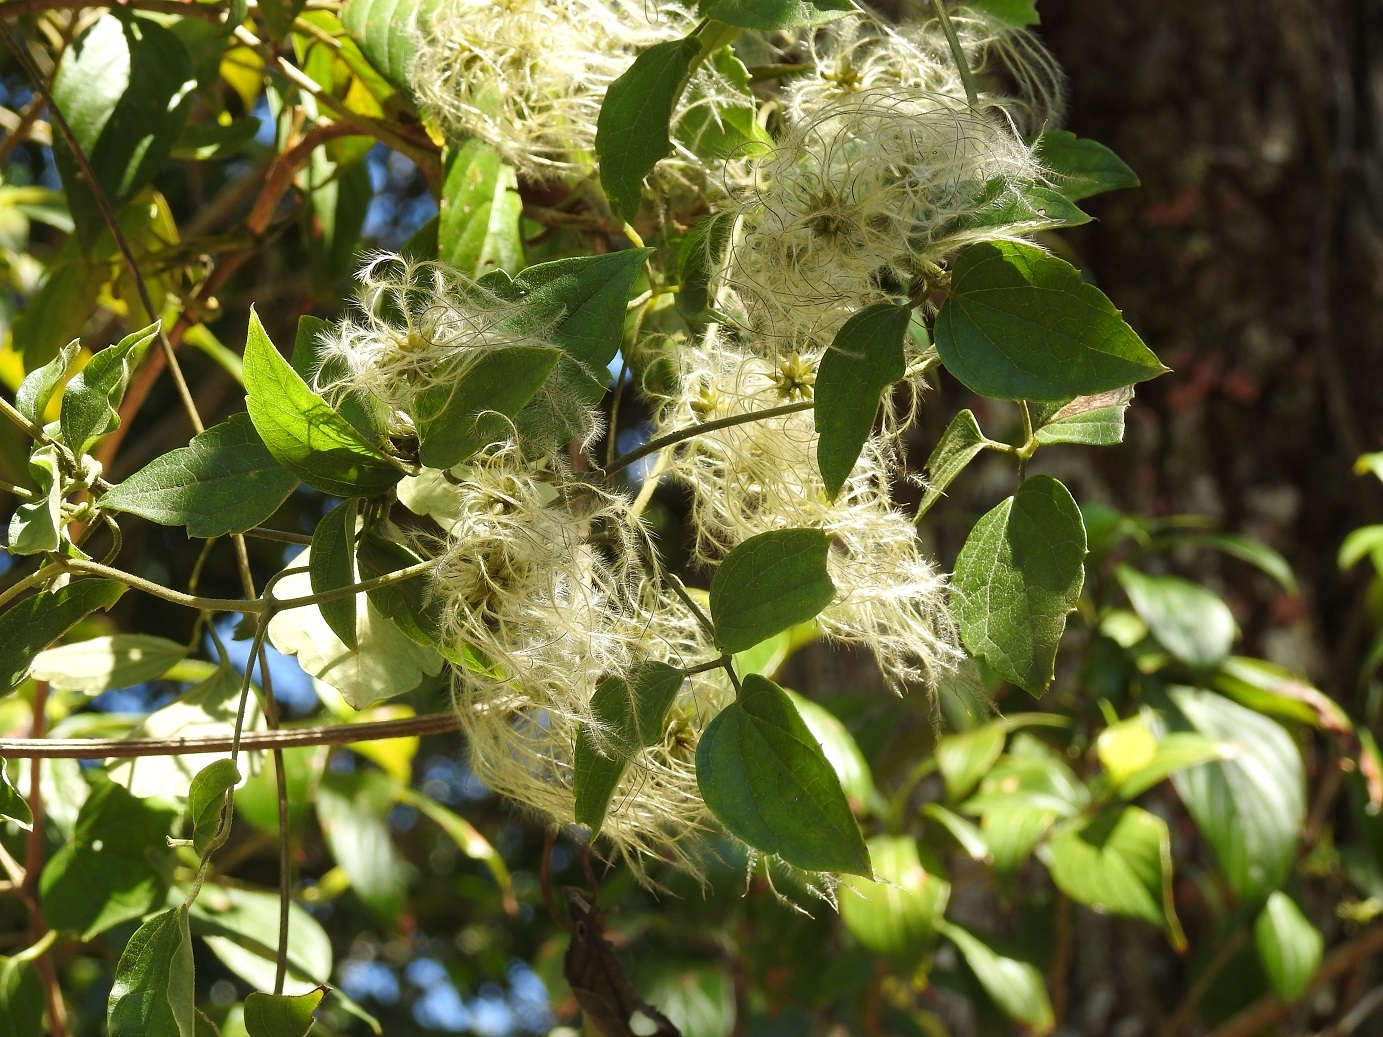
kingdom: Plantae
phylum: Tracheophyta
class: Magnoliopsida
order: Ranunculales
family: Ranunculaceae
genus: Clematis
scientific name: Clematis dioica
